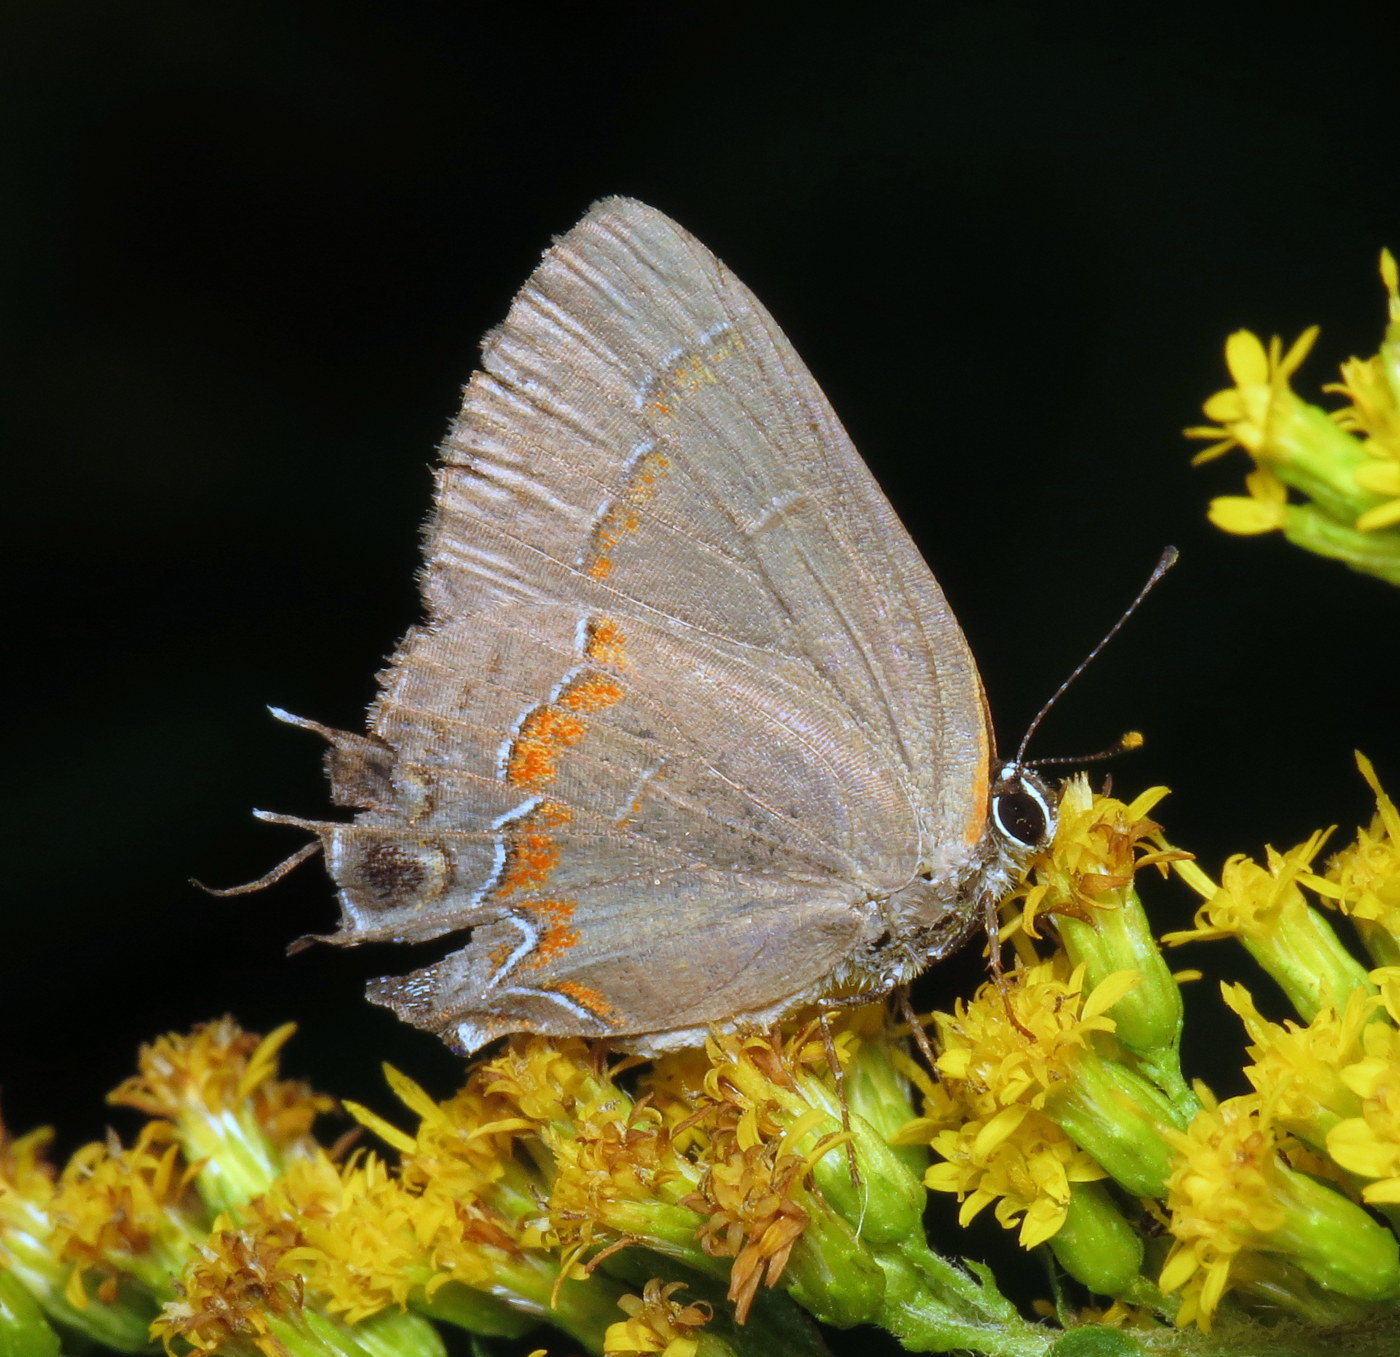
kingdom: Animalia
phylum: Arthropoda
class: Insecta
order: Lepidoptera
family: Lycaenidae
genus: Calycopis
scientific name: Calycopis cecrops
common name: Red-banded hairstreak
